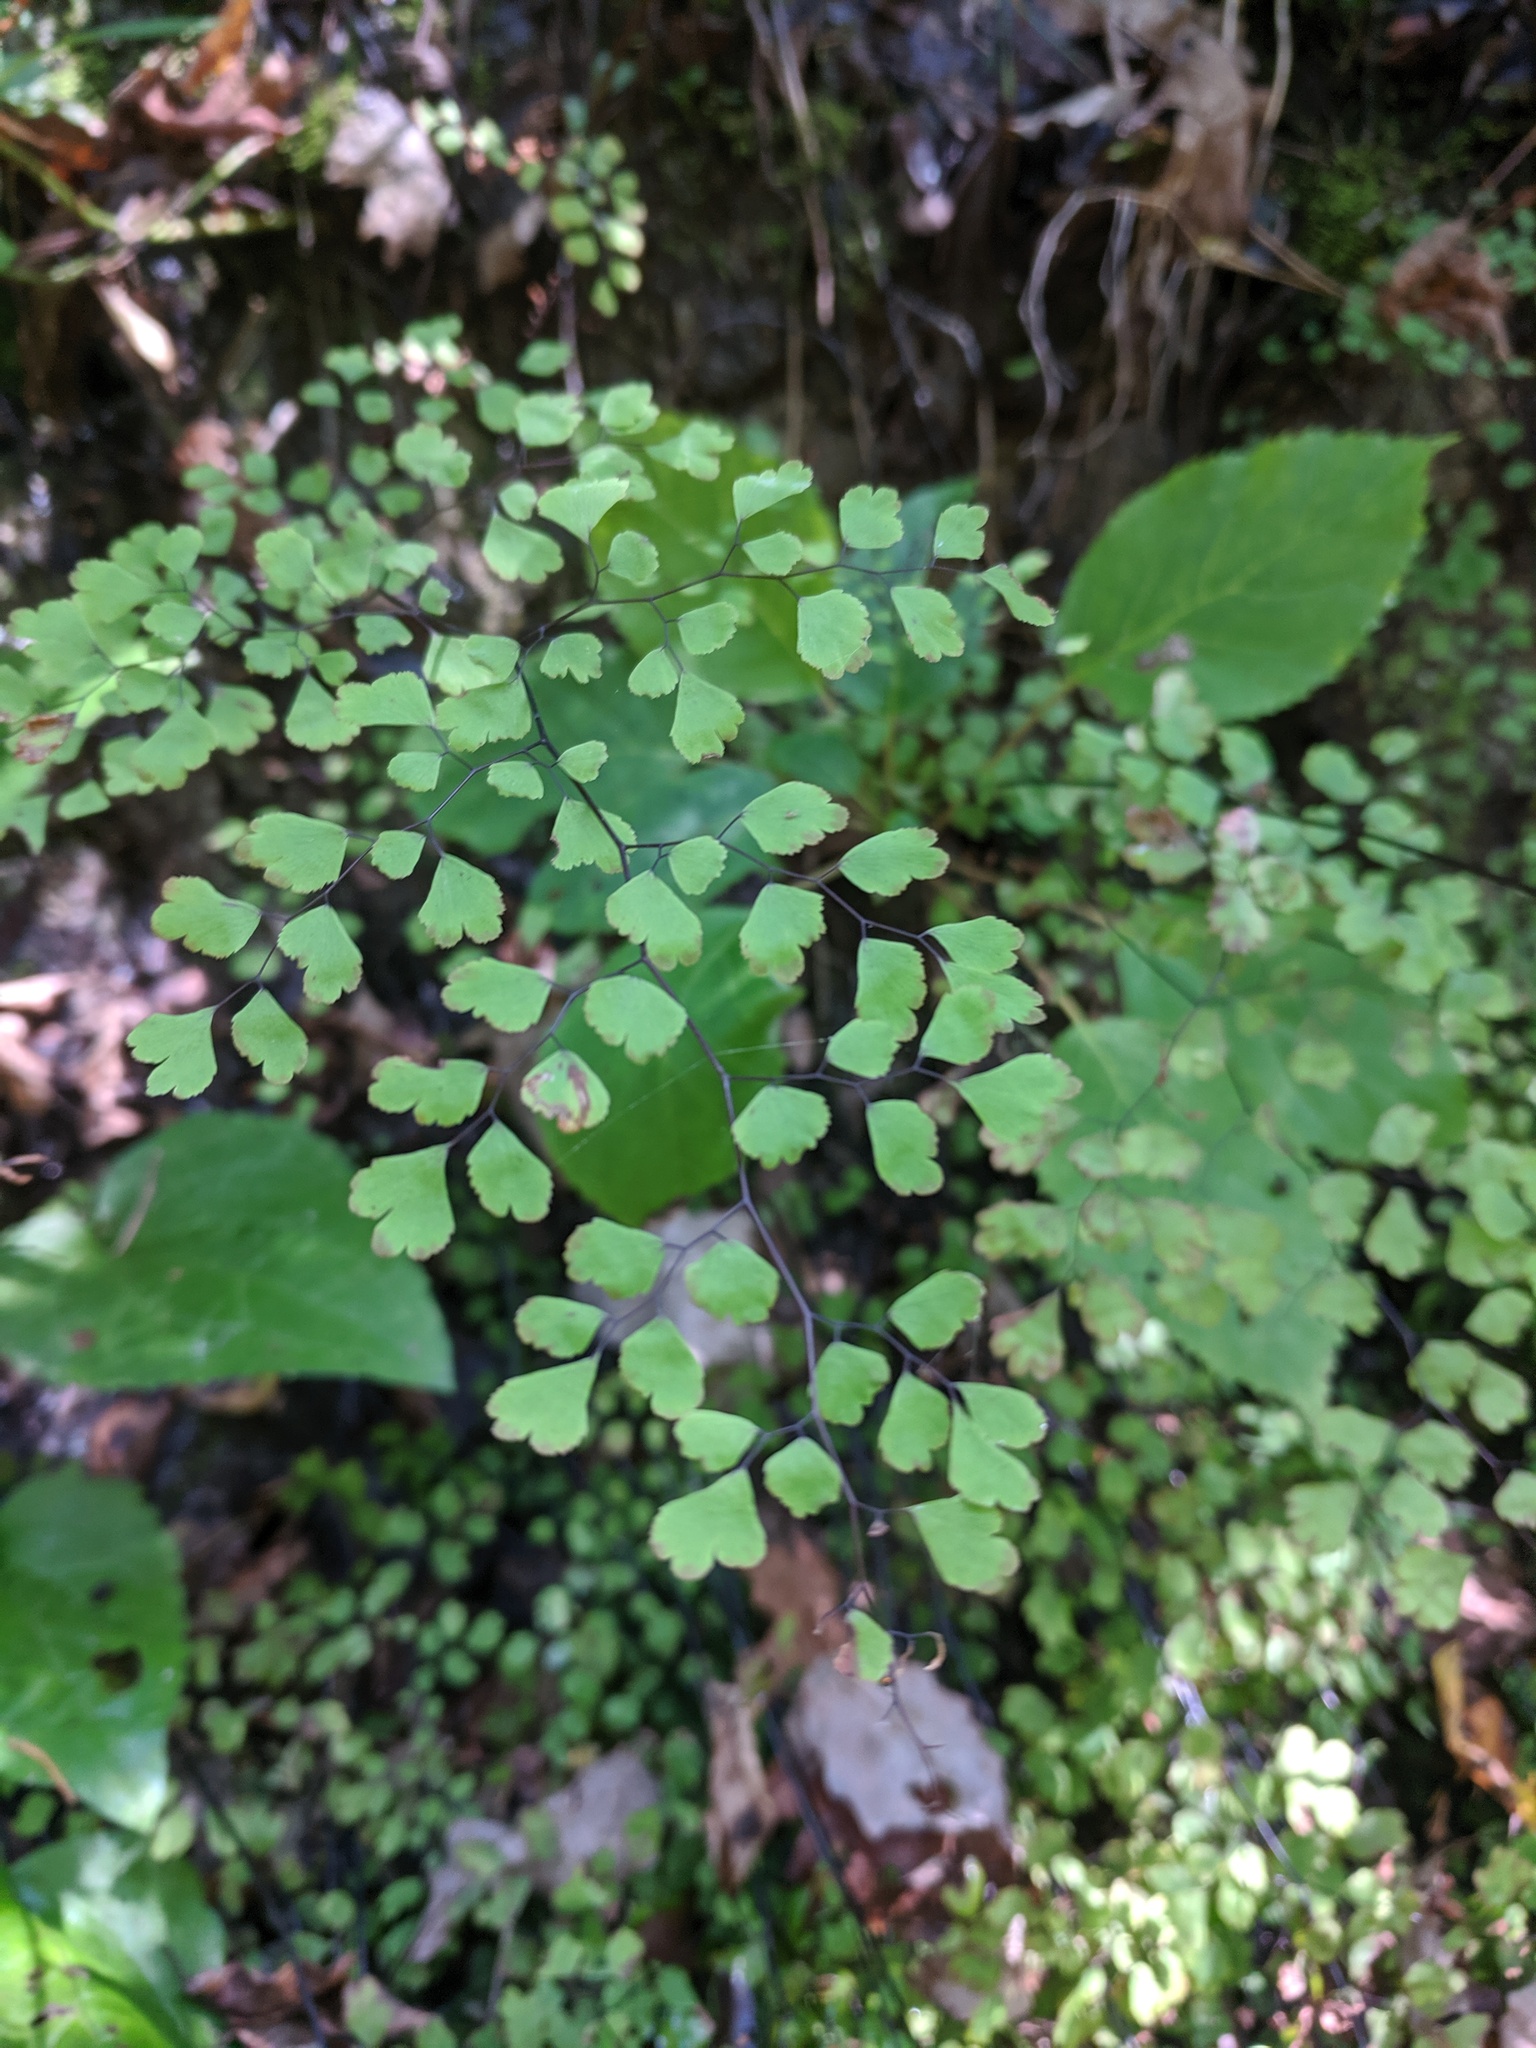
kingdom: Plantae
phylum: Tracheophyta
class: Polypodiopsida
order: Polypodiales
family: Pteridaceae
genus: Adiantum
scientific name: Adiantum capillus-veneris
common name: Maidenhair fern
